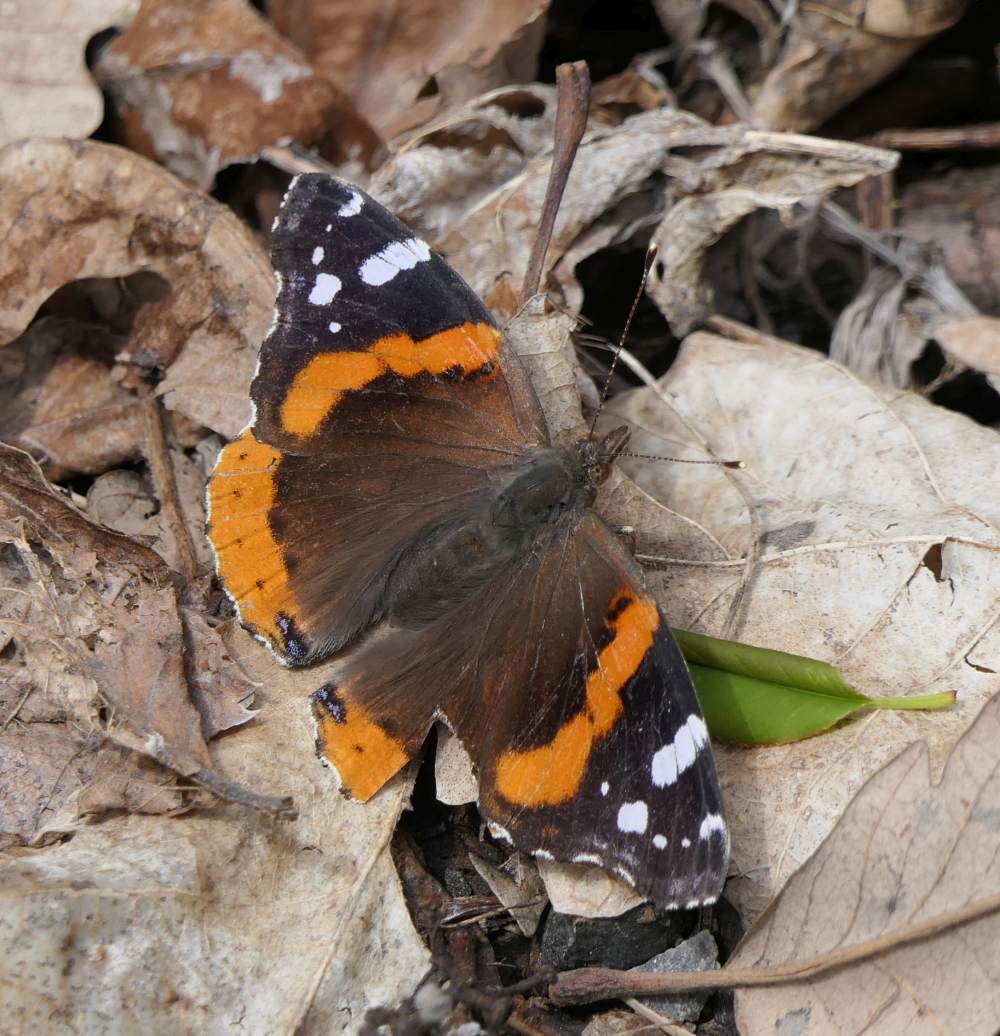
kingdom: Animalia
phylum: Arthropoda
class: Insecta
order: Lepidoptera
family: Nymphalidae
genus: Vanessa
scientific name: Vanessa atalanta
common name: Red admiral
